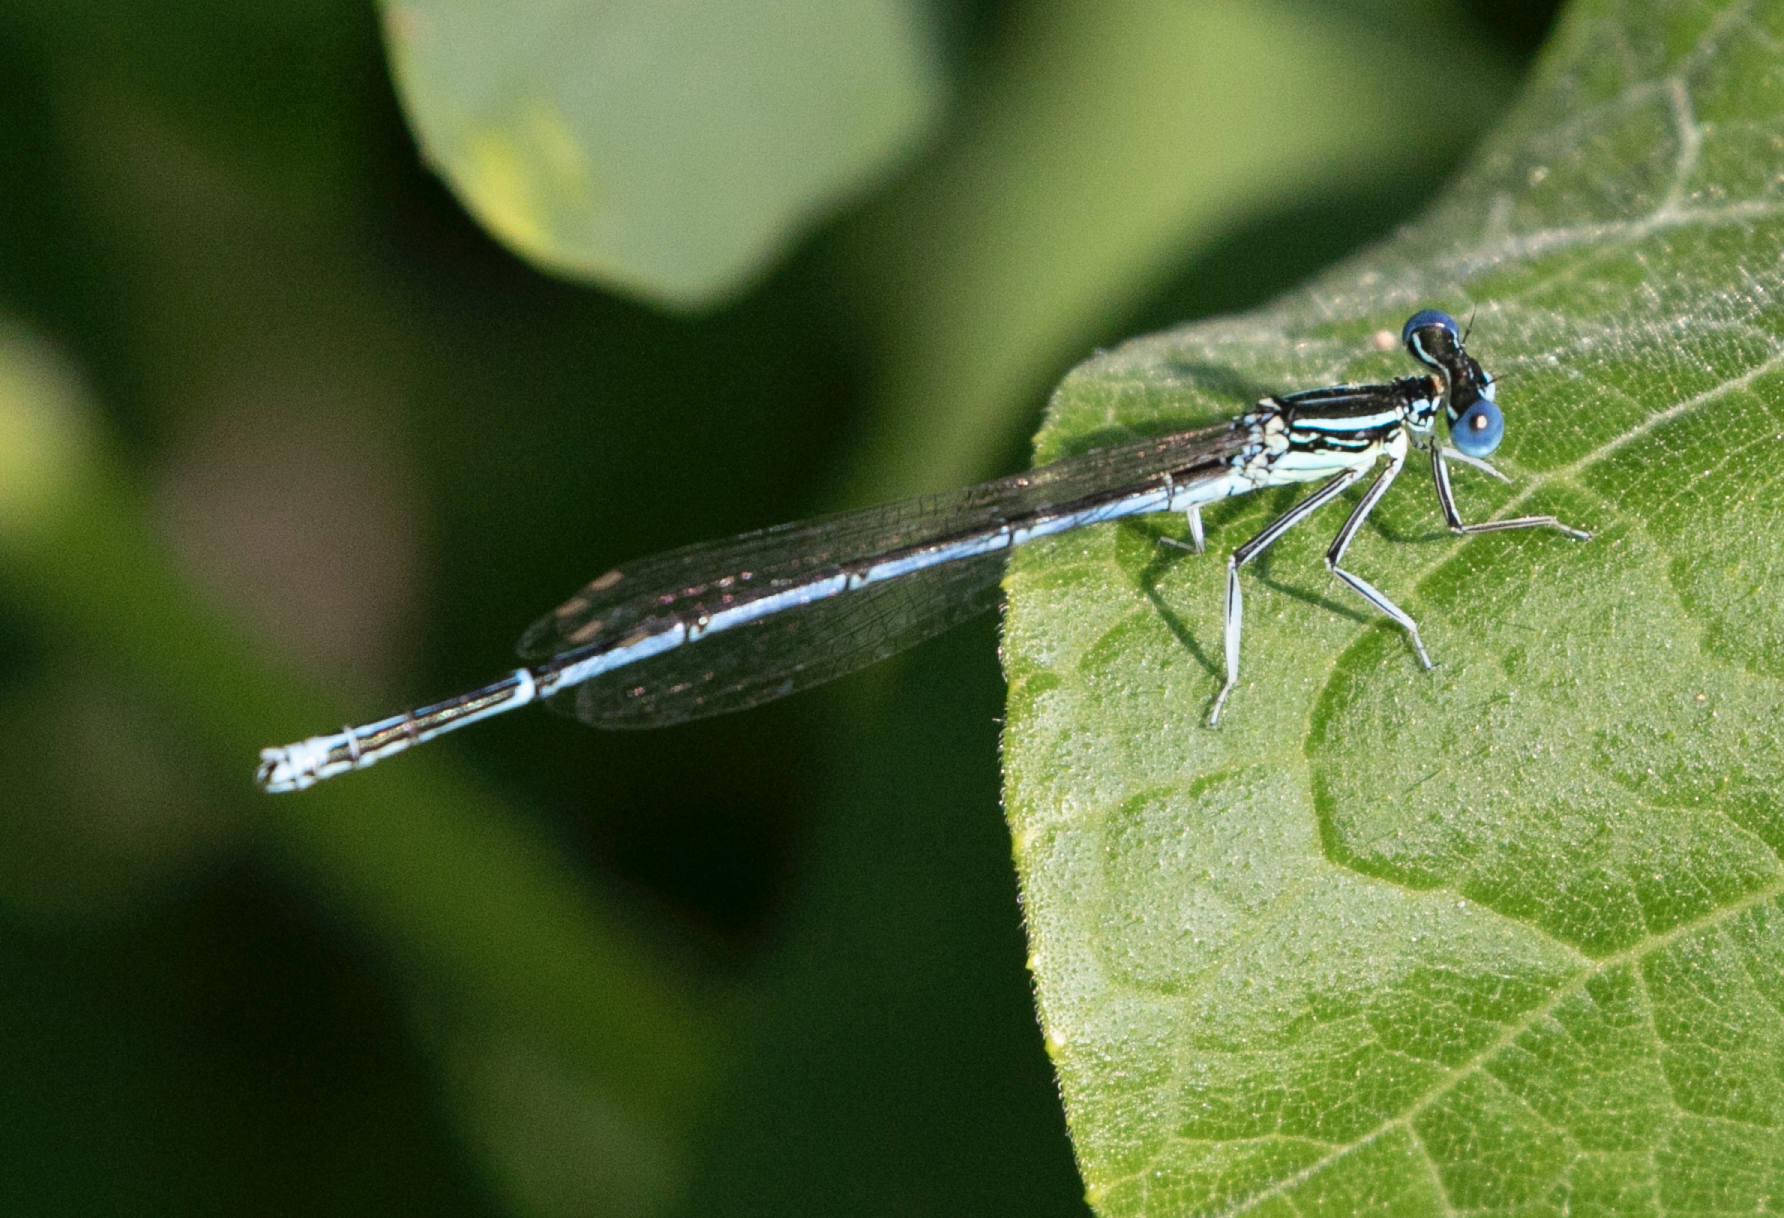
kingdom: Animalia
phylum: Arthropoda
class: Insecta
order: Odonata
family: Platycnemididae
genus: Platycnemis
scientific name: Platycnemis pennipes
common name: White-legged damselfly
